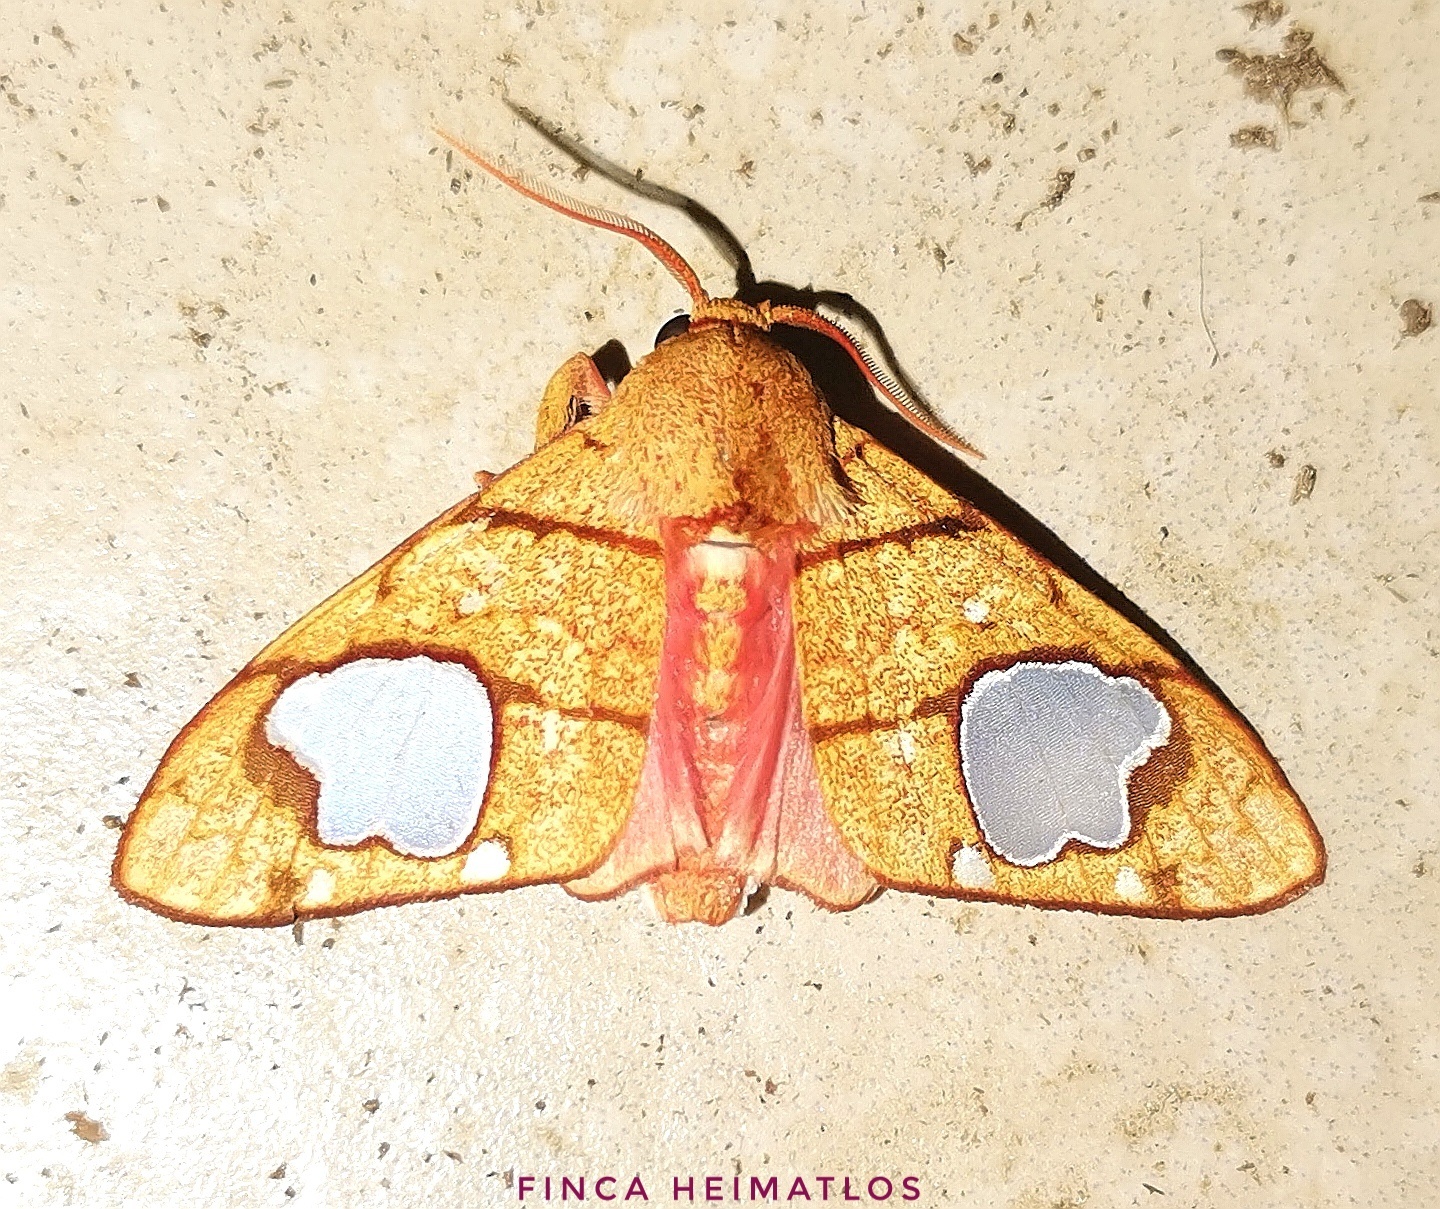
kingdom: Animalia
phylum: Arthropoda
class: Insecta
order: Lepidoptera
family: Erebidae
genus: Zatrephes
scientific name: Zatrephes trailii
